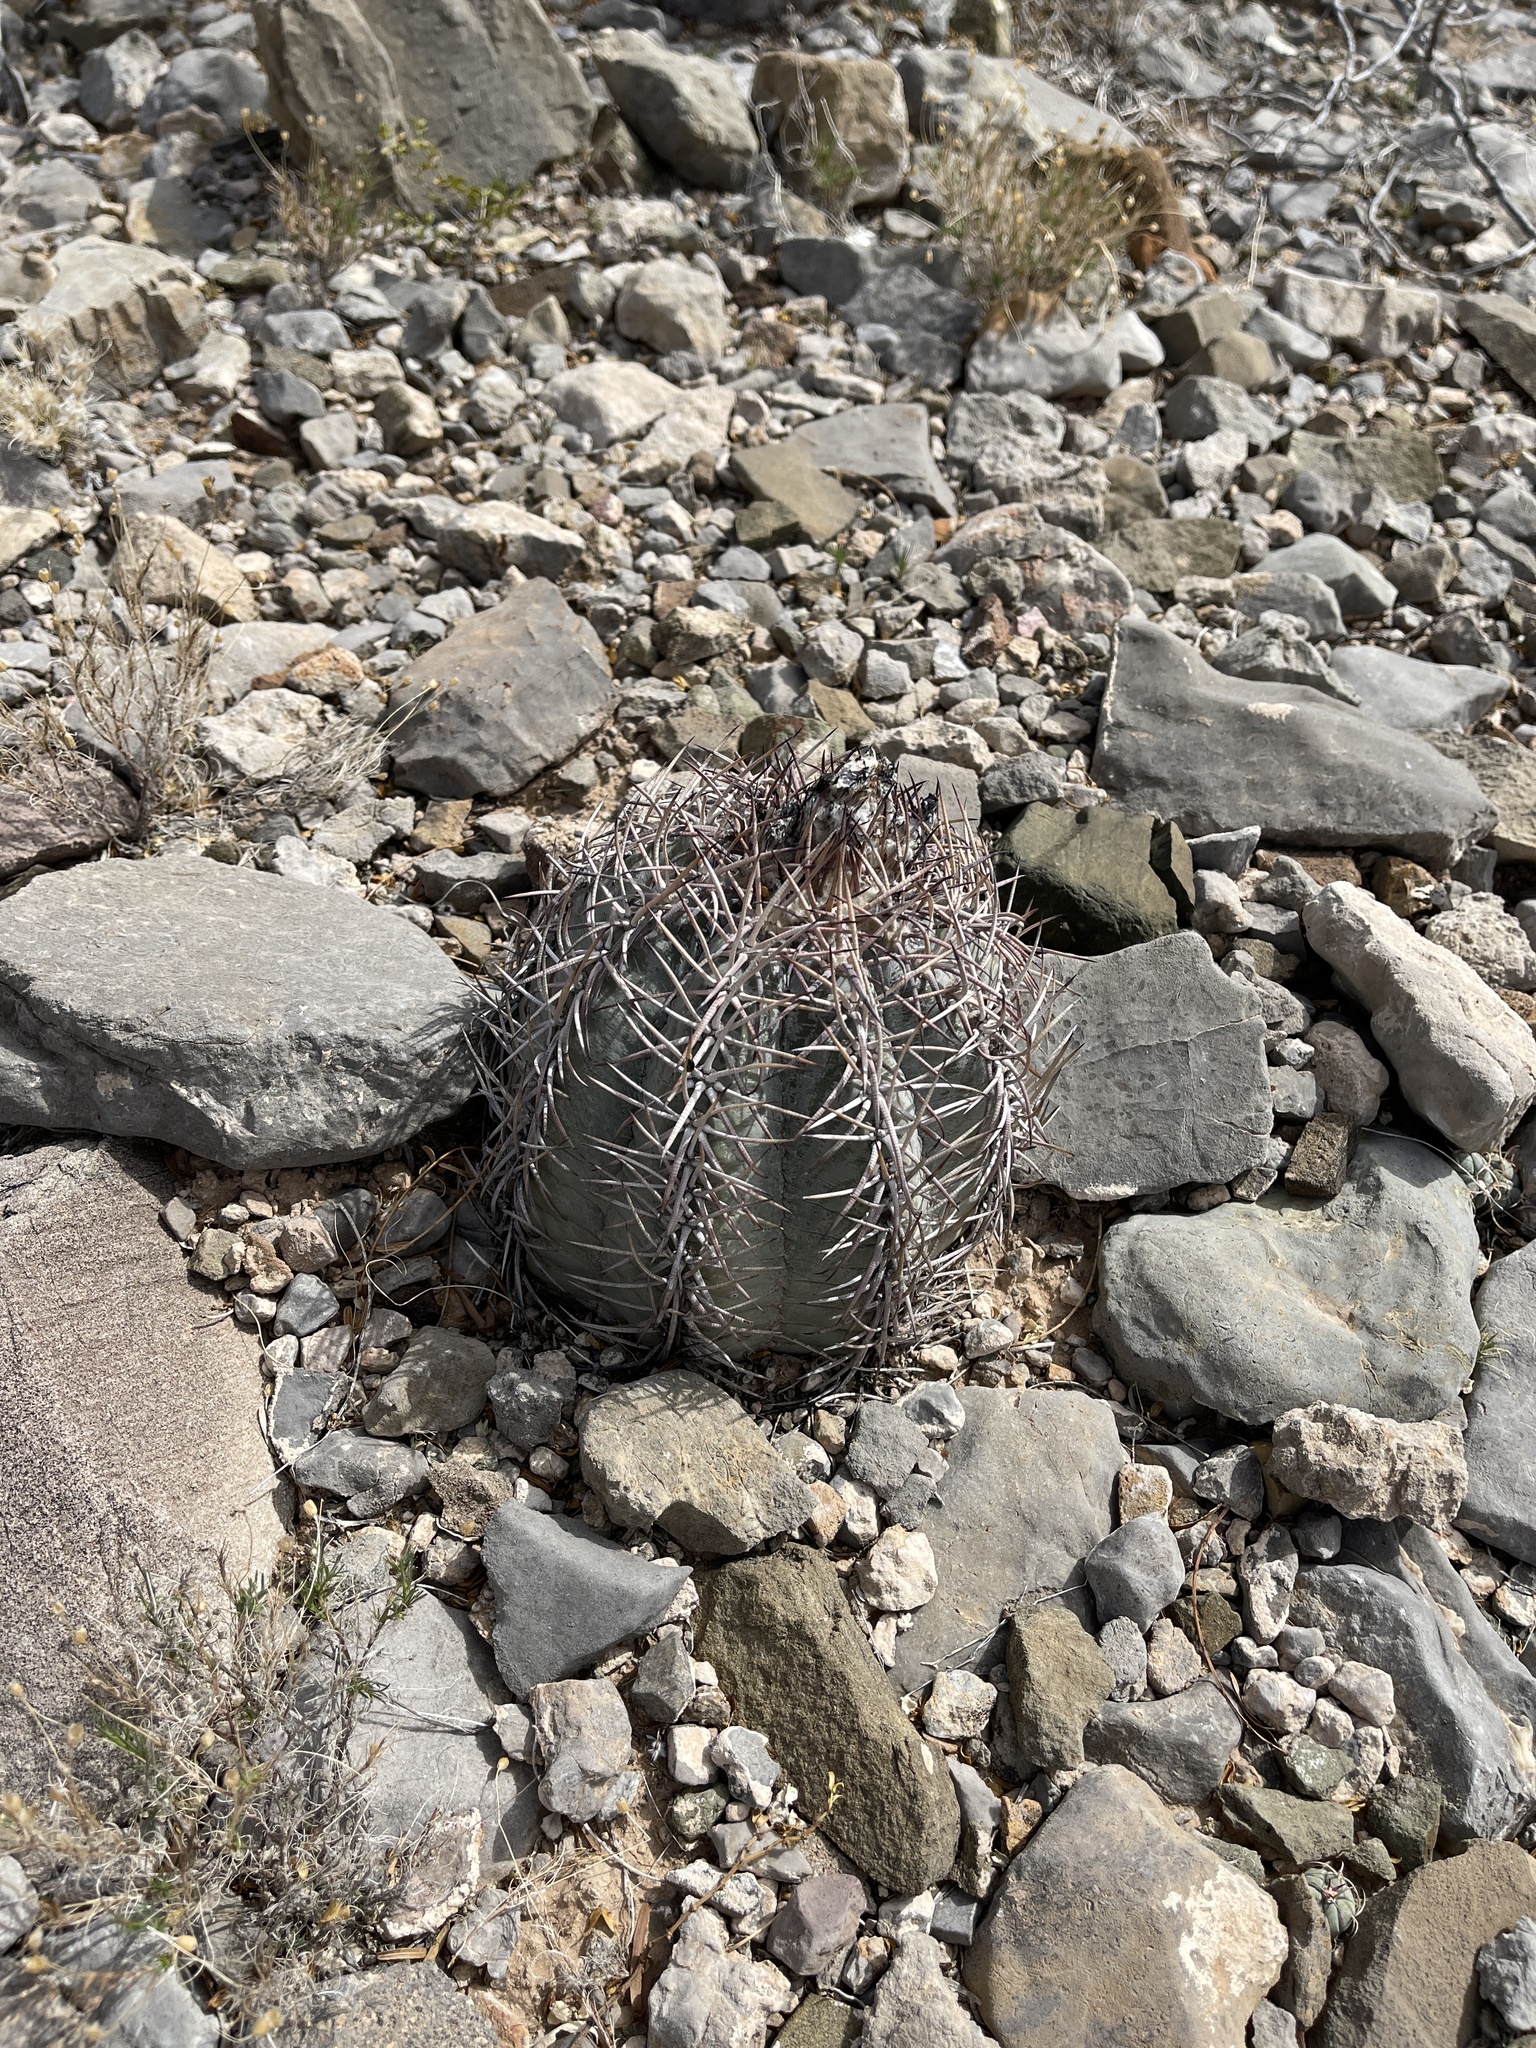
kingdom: Plantae
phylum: Tracheophyta
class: Magnoliopsida
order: Caryophyllales
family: Cactaceae
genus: Echinocactus
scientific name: Echinocactus horizonthalonius
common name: Devilshead
